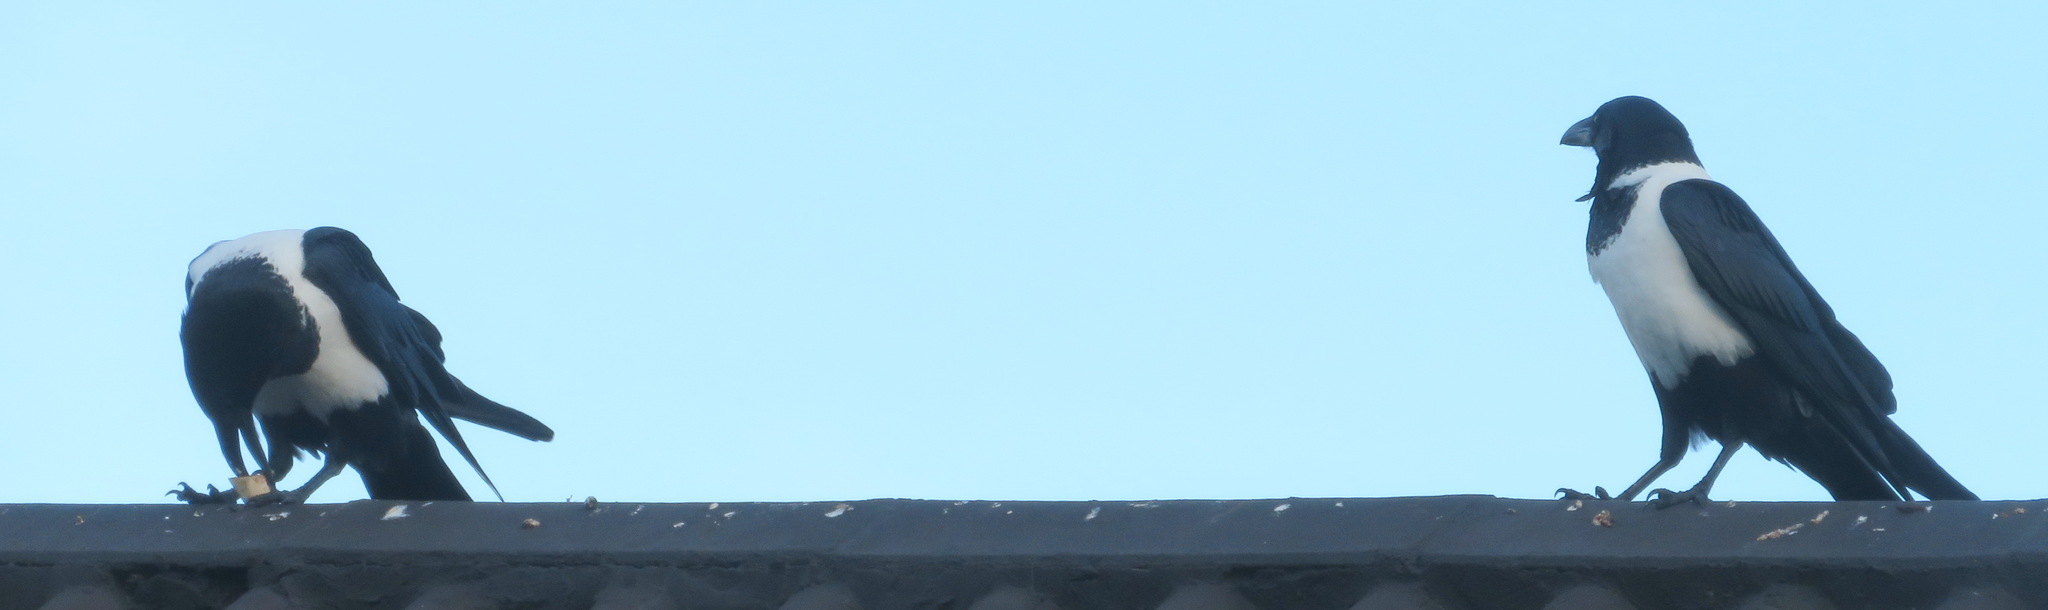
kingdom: Animalia
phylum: Chordata
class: Aves
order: Passeriformes
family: Corvidae
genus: Corvus
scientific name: Corvus albus
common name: Pied crow
